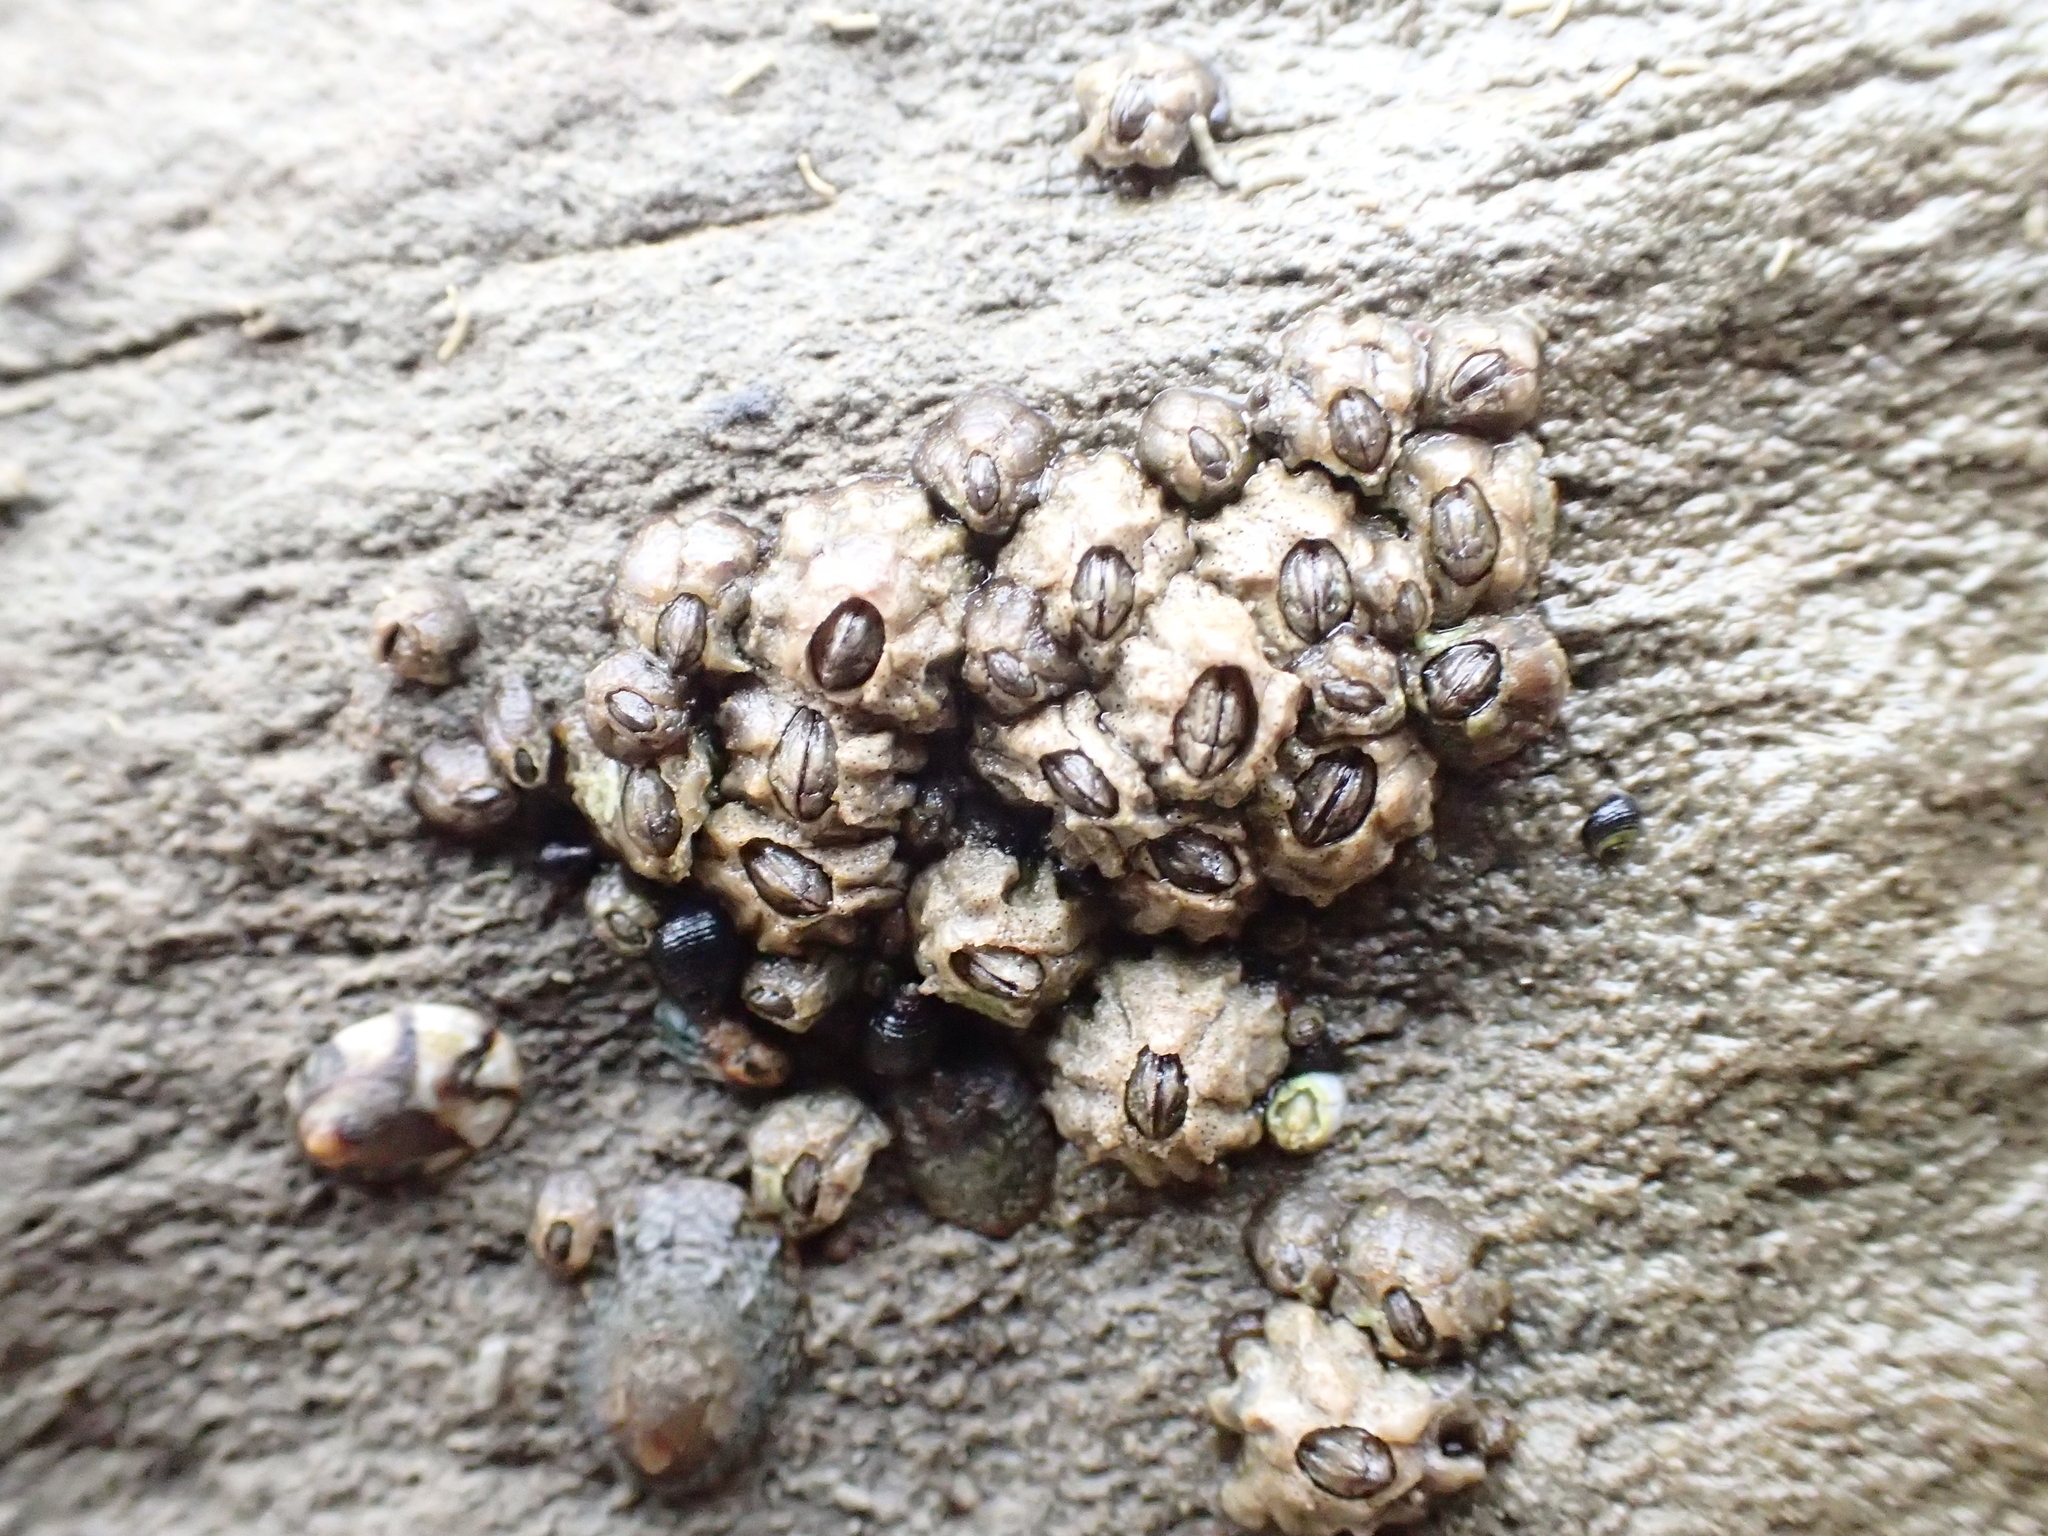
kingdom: Animalia
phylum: Arthropoda
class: Maxillopoda
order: Sessilia
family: Chthamalidae
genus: Chthamalus
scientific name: Chthamalus dalli
